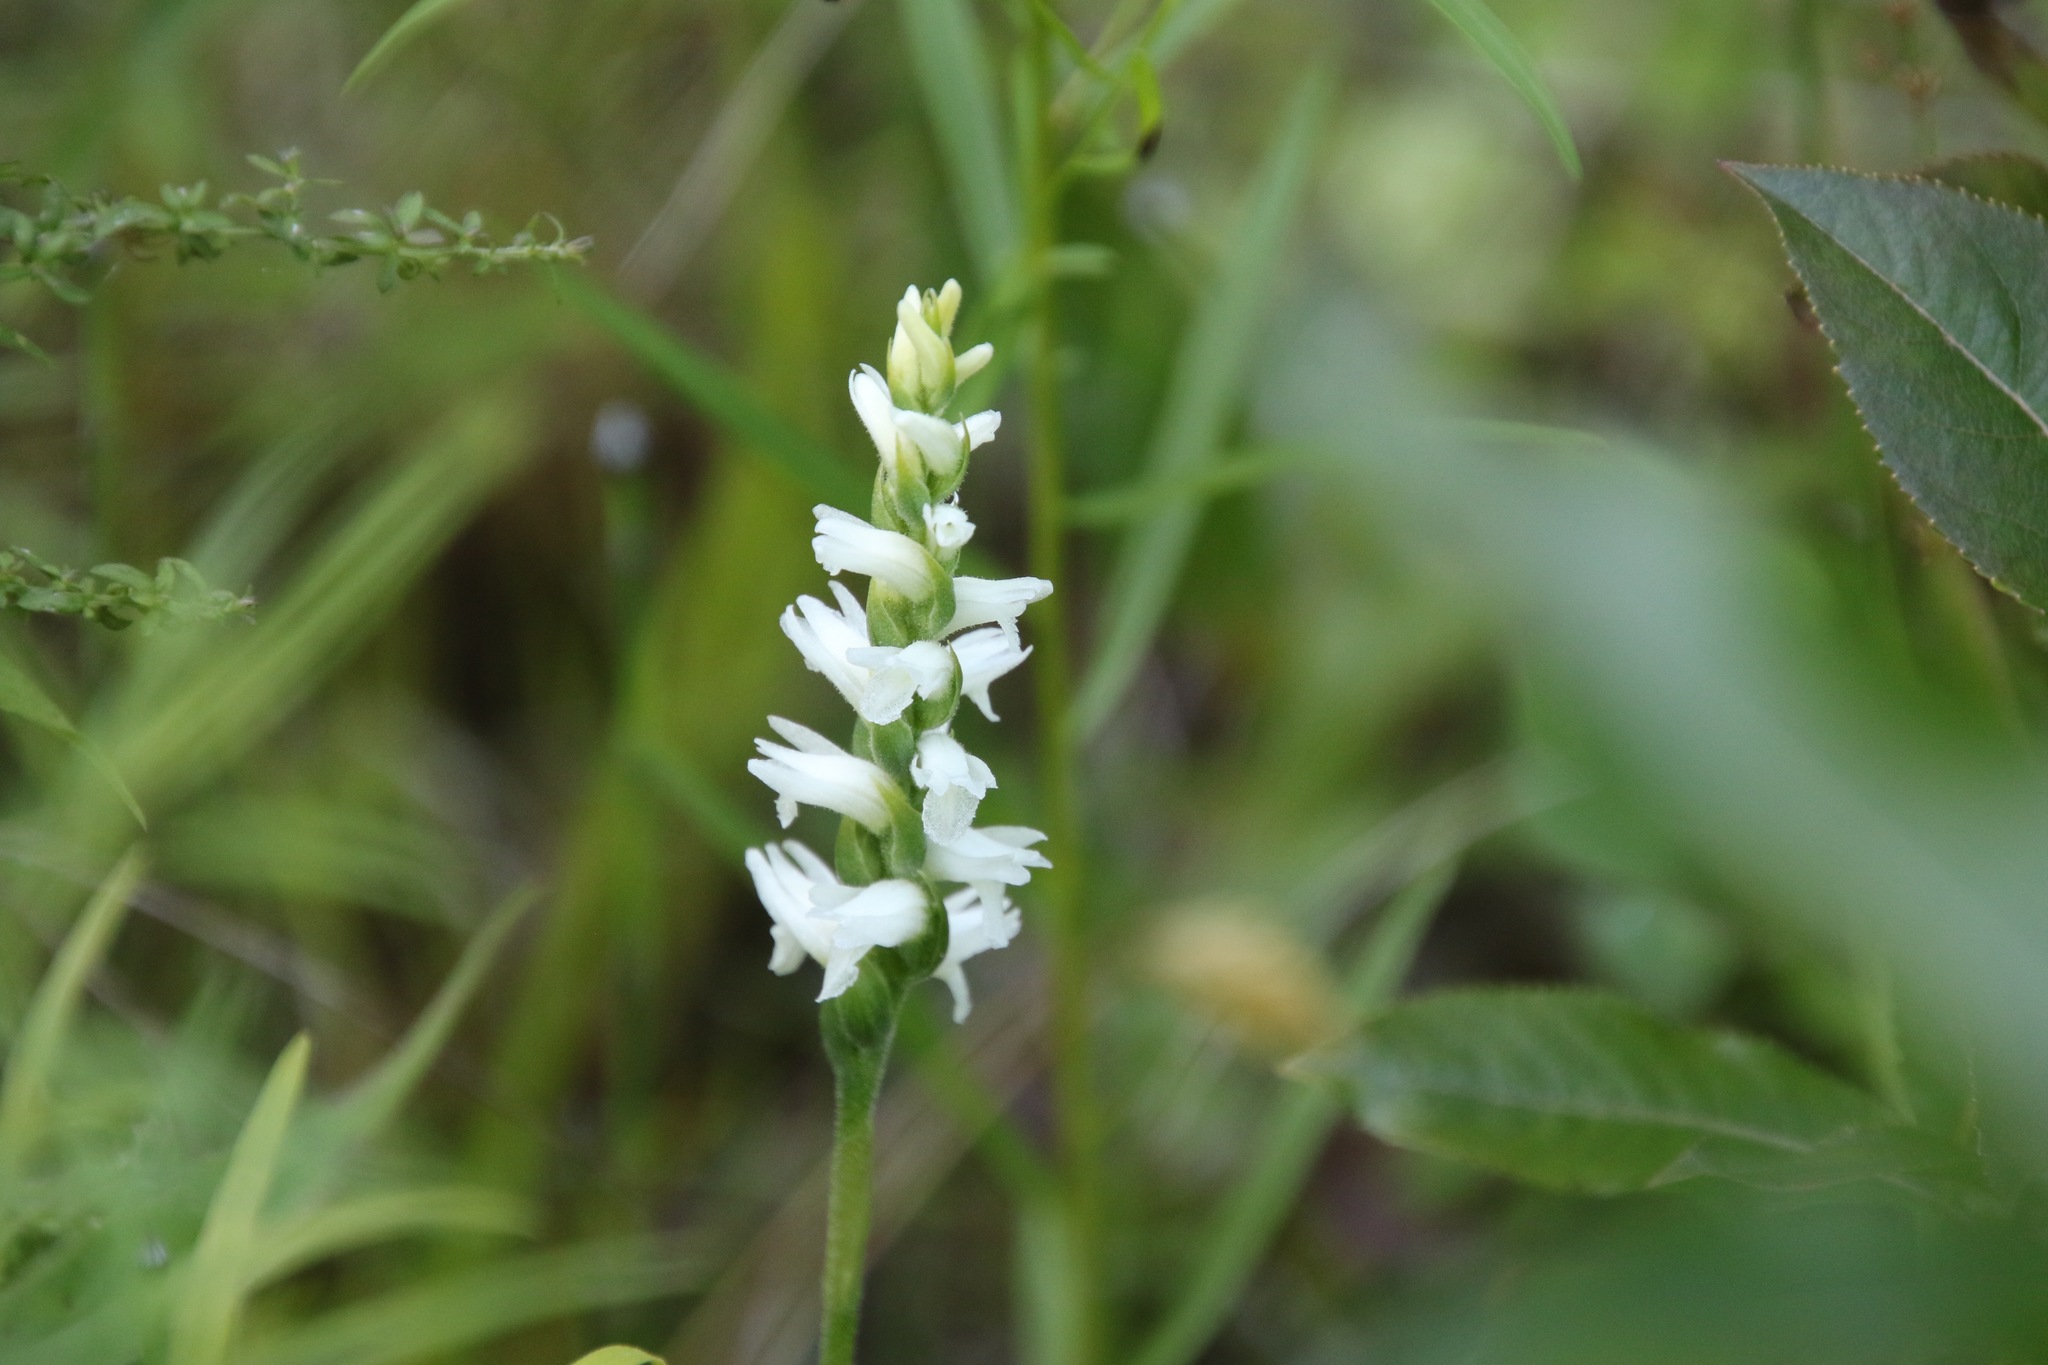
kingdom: Plantae
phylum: Tracheophyta
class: Liliopsida
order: Asparagales
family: Orchidaceae
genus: Spiranthes
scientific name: Spiranthes incurva
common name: Sphinx ladies'-tresses
